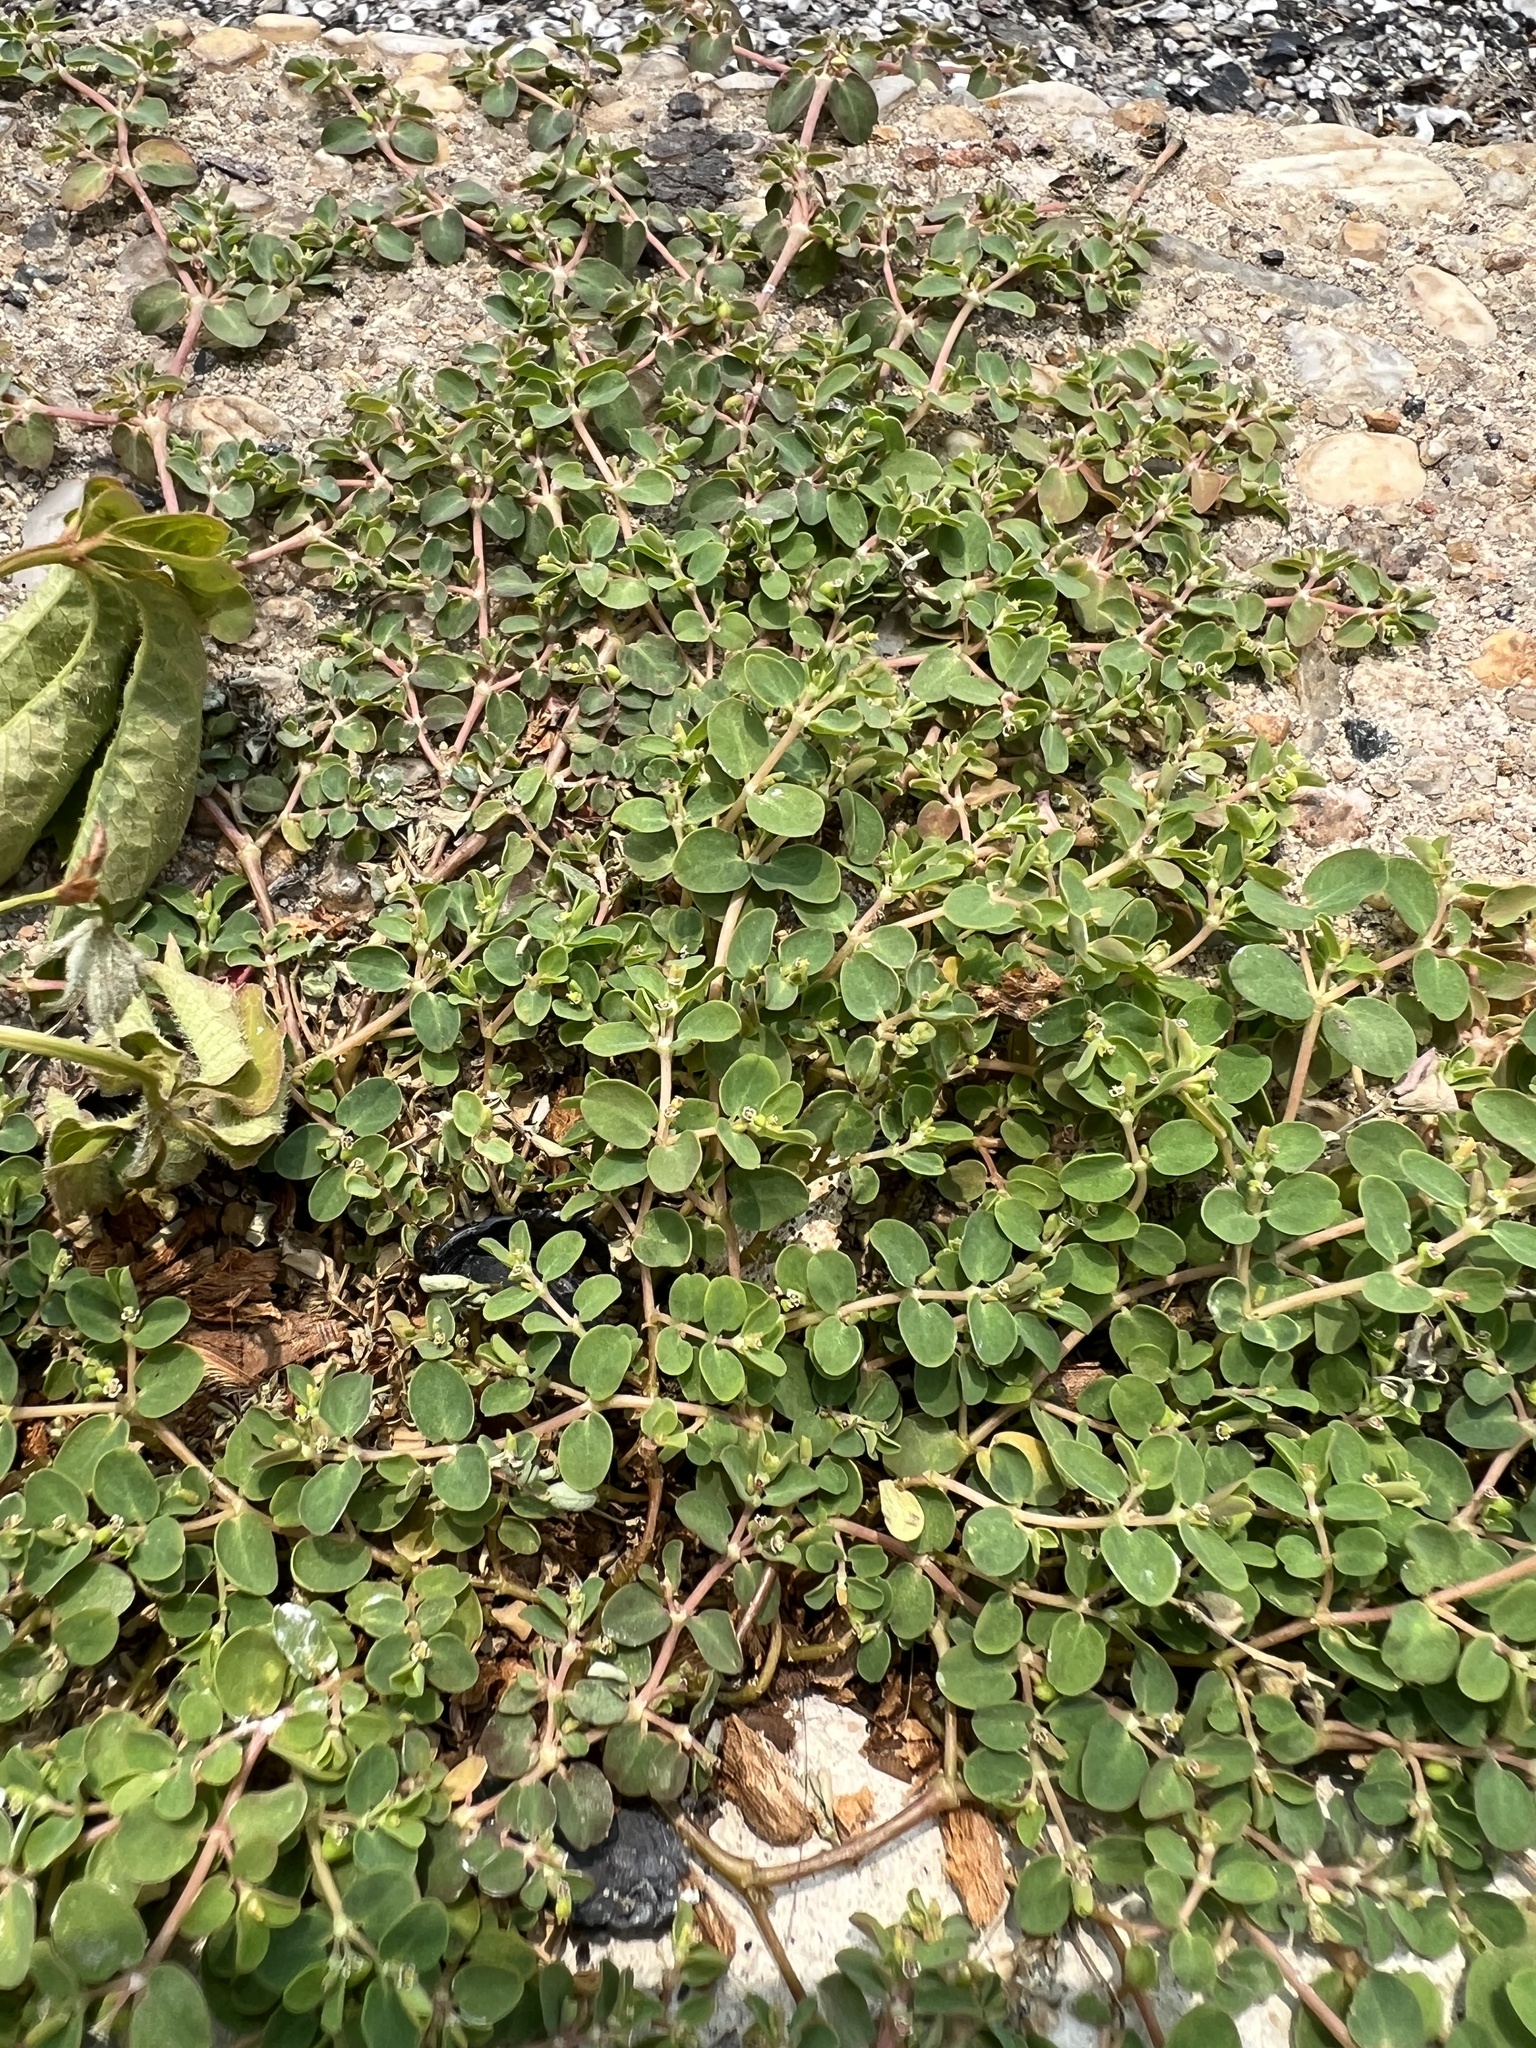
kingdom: Plantae
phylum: Tracheophyta
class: Magnoliopsida
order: Malpighiales
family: Euphorbiaceae
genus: Euphorbia
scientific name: Euphorbia serpens
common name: Matted sandmat
